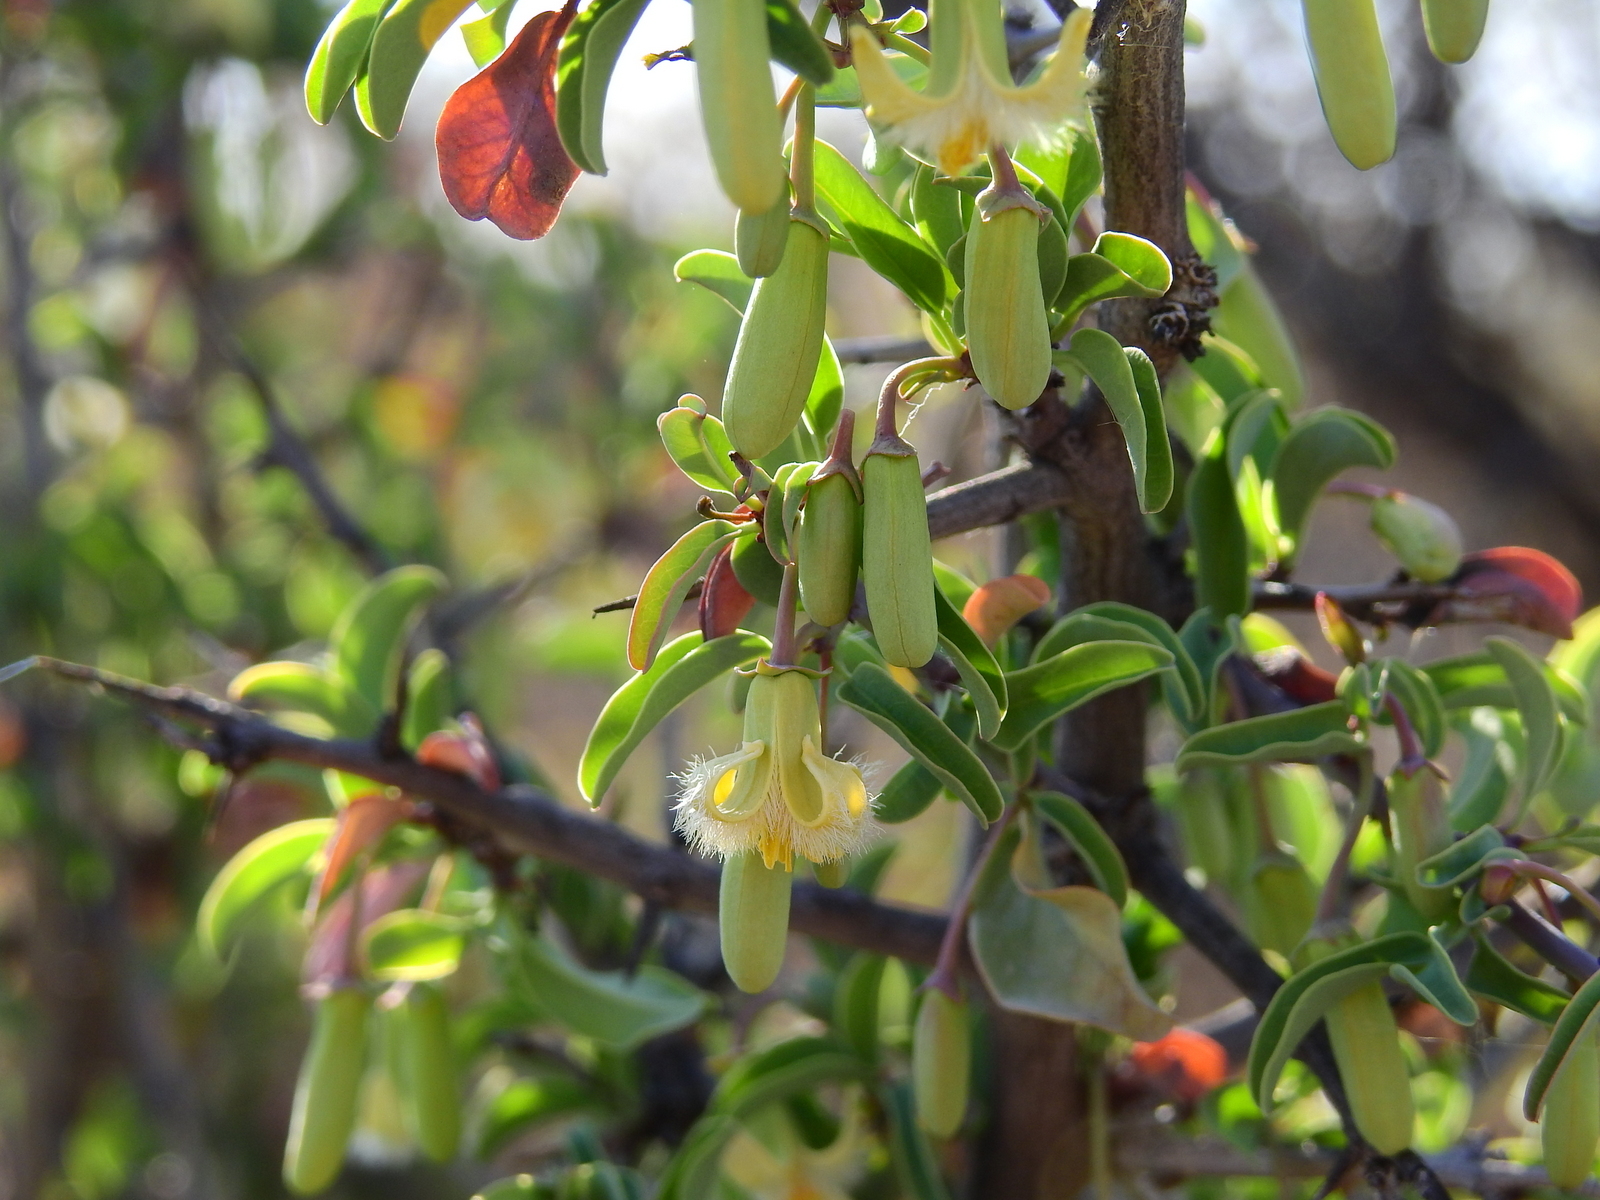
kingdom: Plantae
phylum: Tracheophyta
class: Magnoliopsida
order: Santalales
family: Ximeniaceae
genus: Ximenia
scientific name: Ximenia americana
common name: Tallowwood
